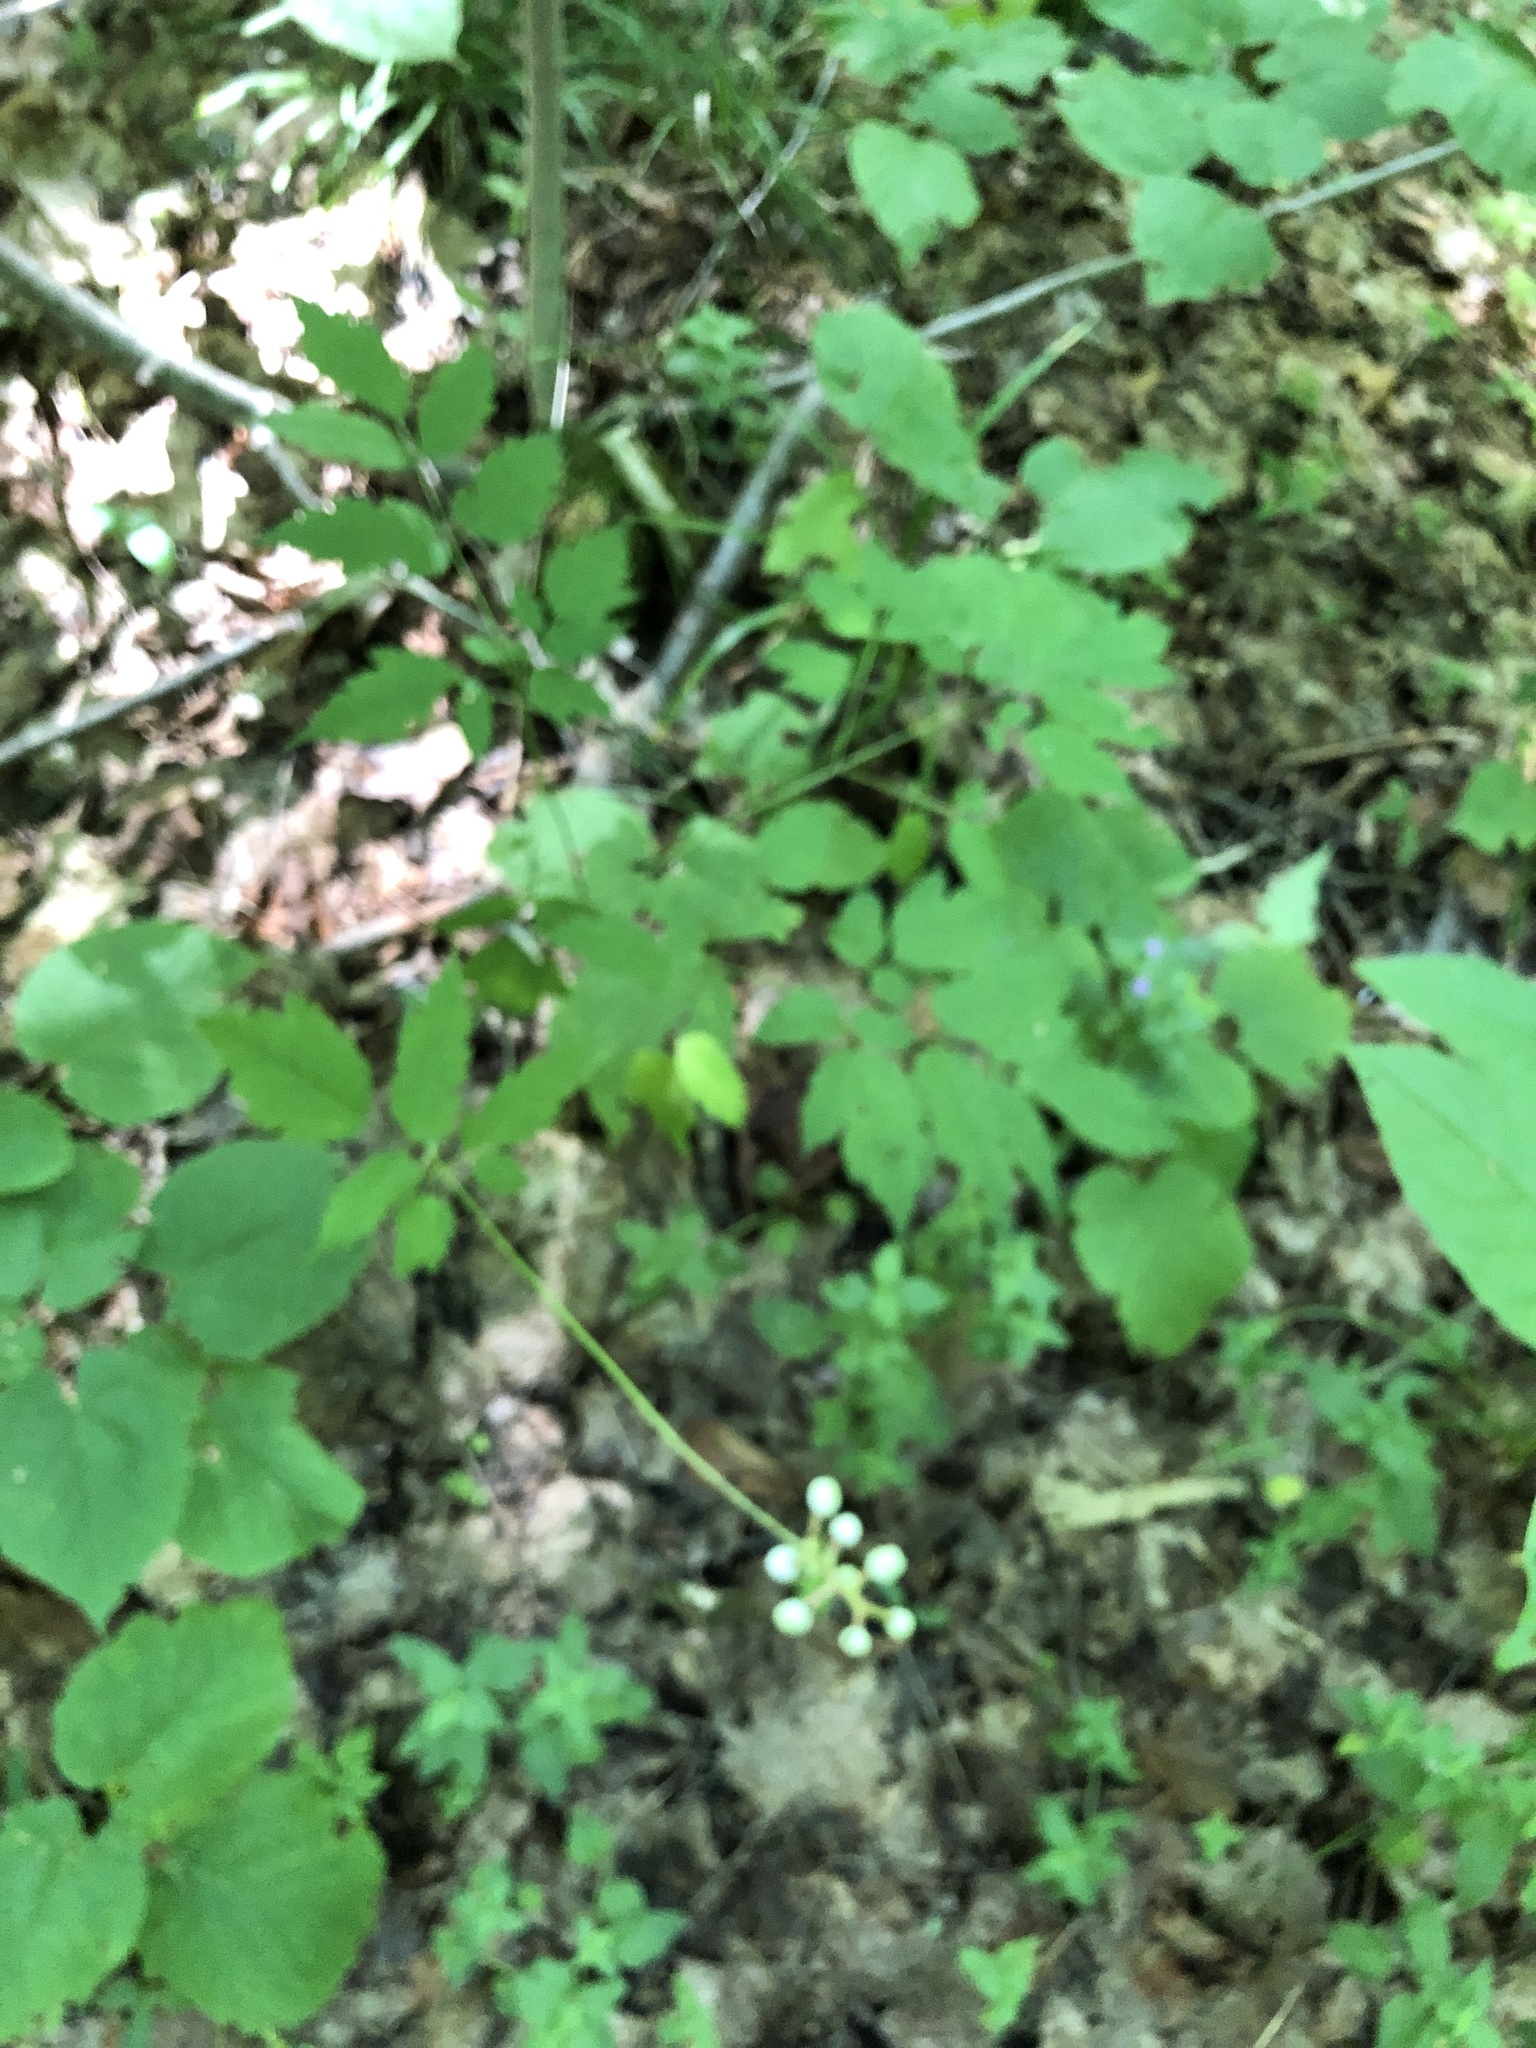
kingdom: Plantae
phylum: Tracheophyta
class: Magnoliopsida
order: Ranunculales
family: Ranunculaceae
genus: Actaea
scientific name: Actaea pachypoda
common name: Doll's-eyes
